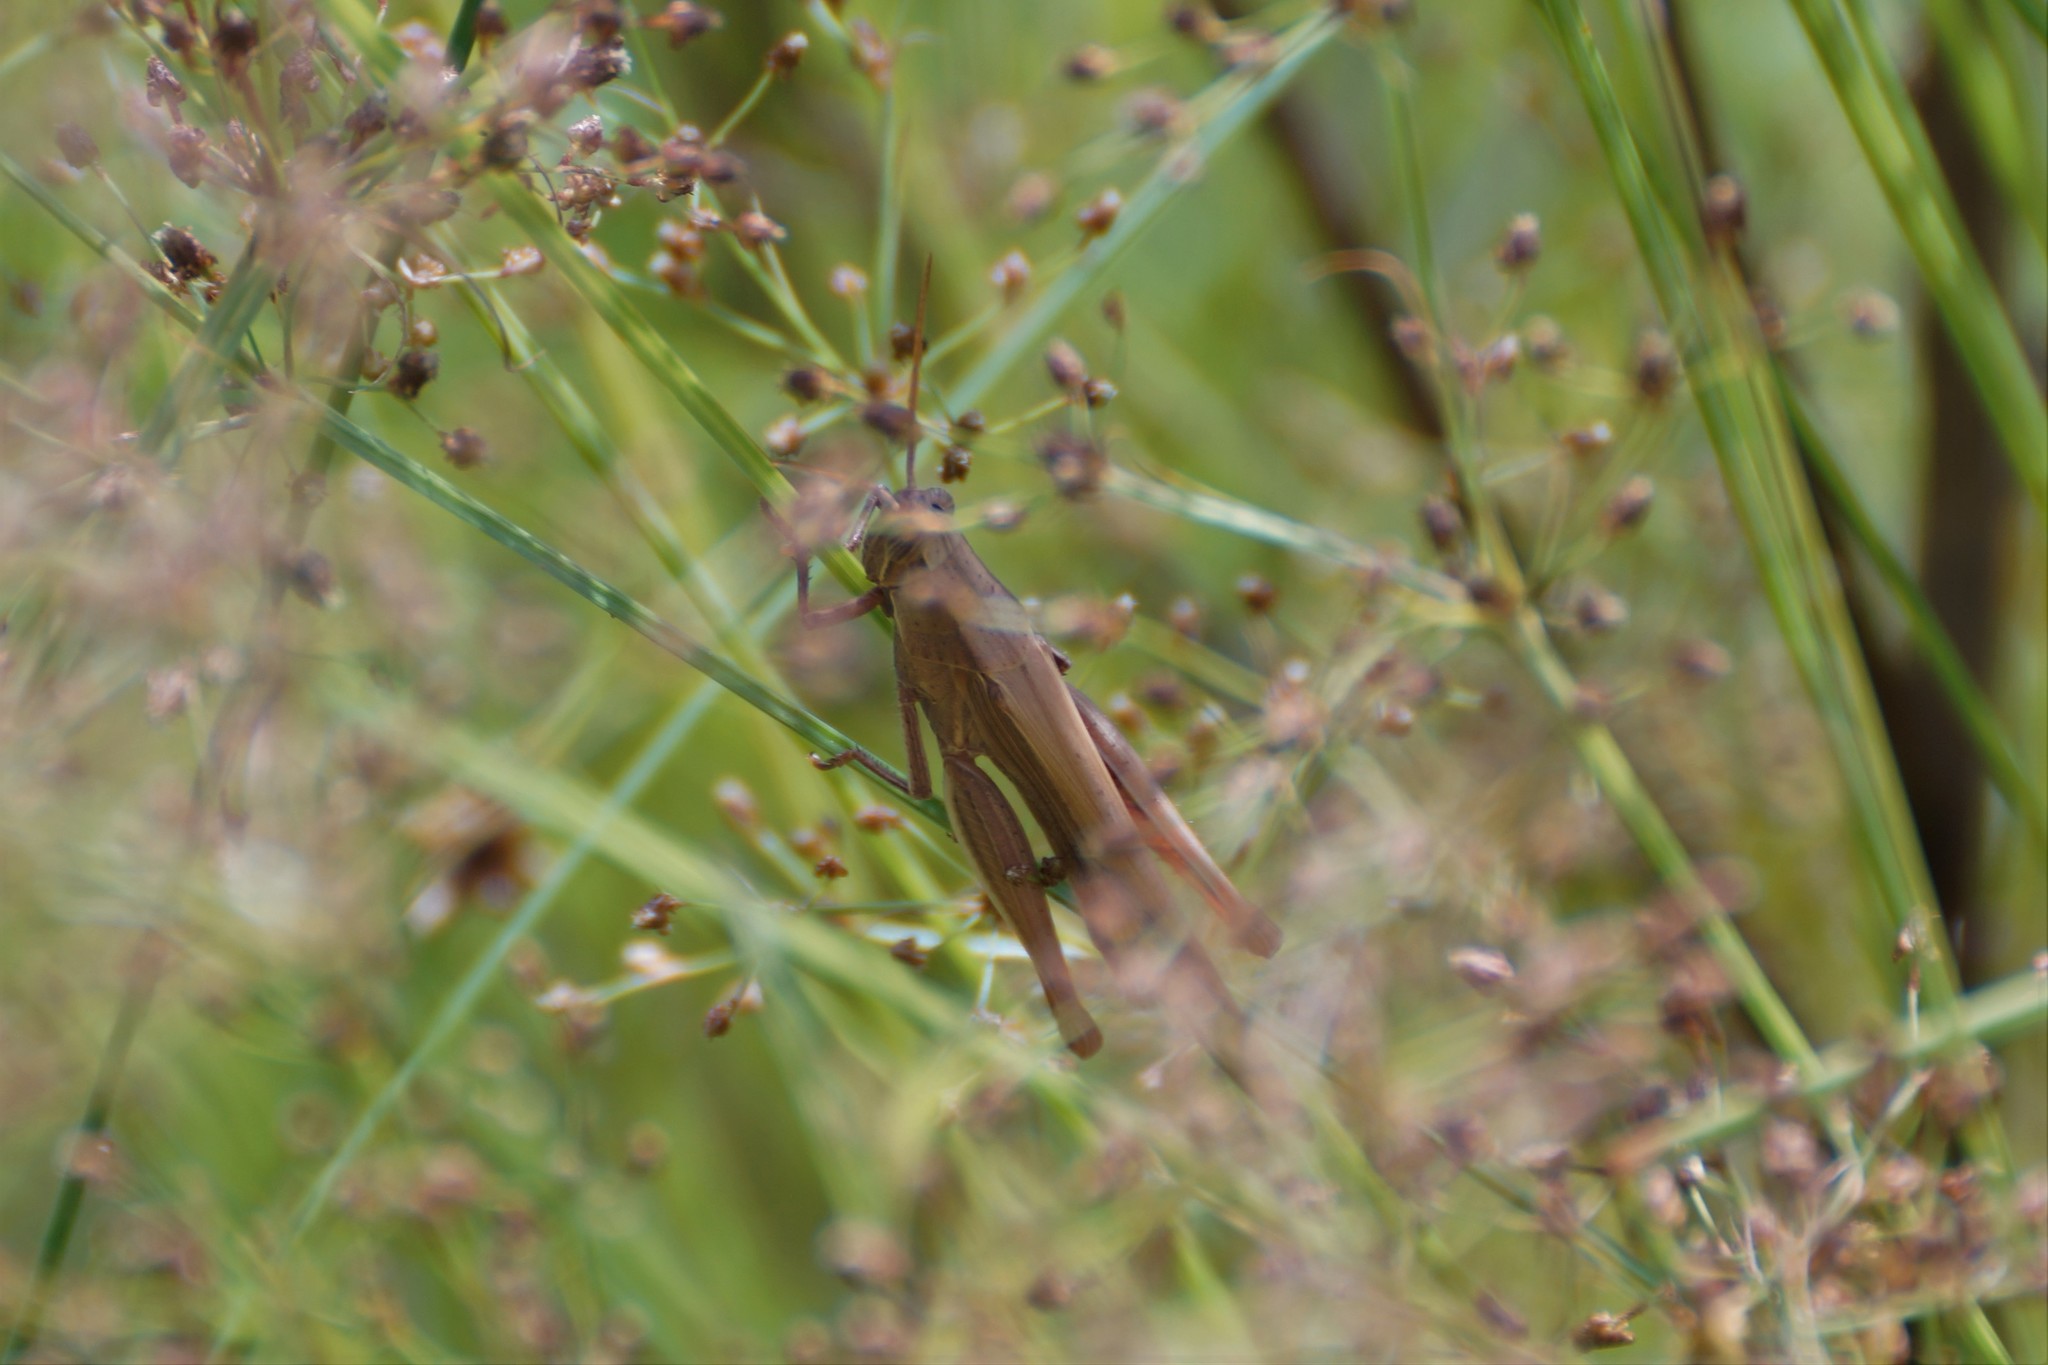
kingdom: Animalia
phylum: Arthropoda
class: Insecta
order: Orthoptera
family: Acrididae
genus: Stenocatantops
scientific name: Stenocatantops vitripennis
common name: Light-brown sharptail
